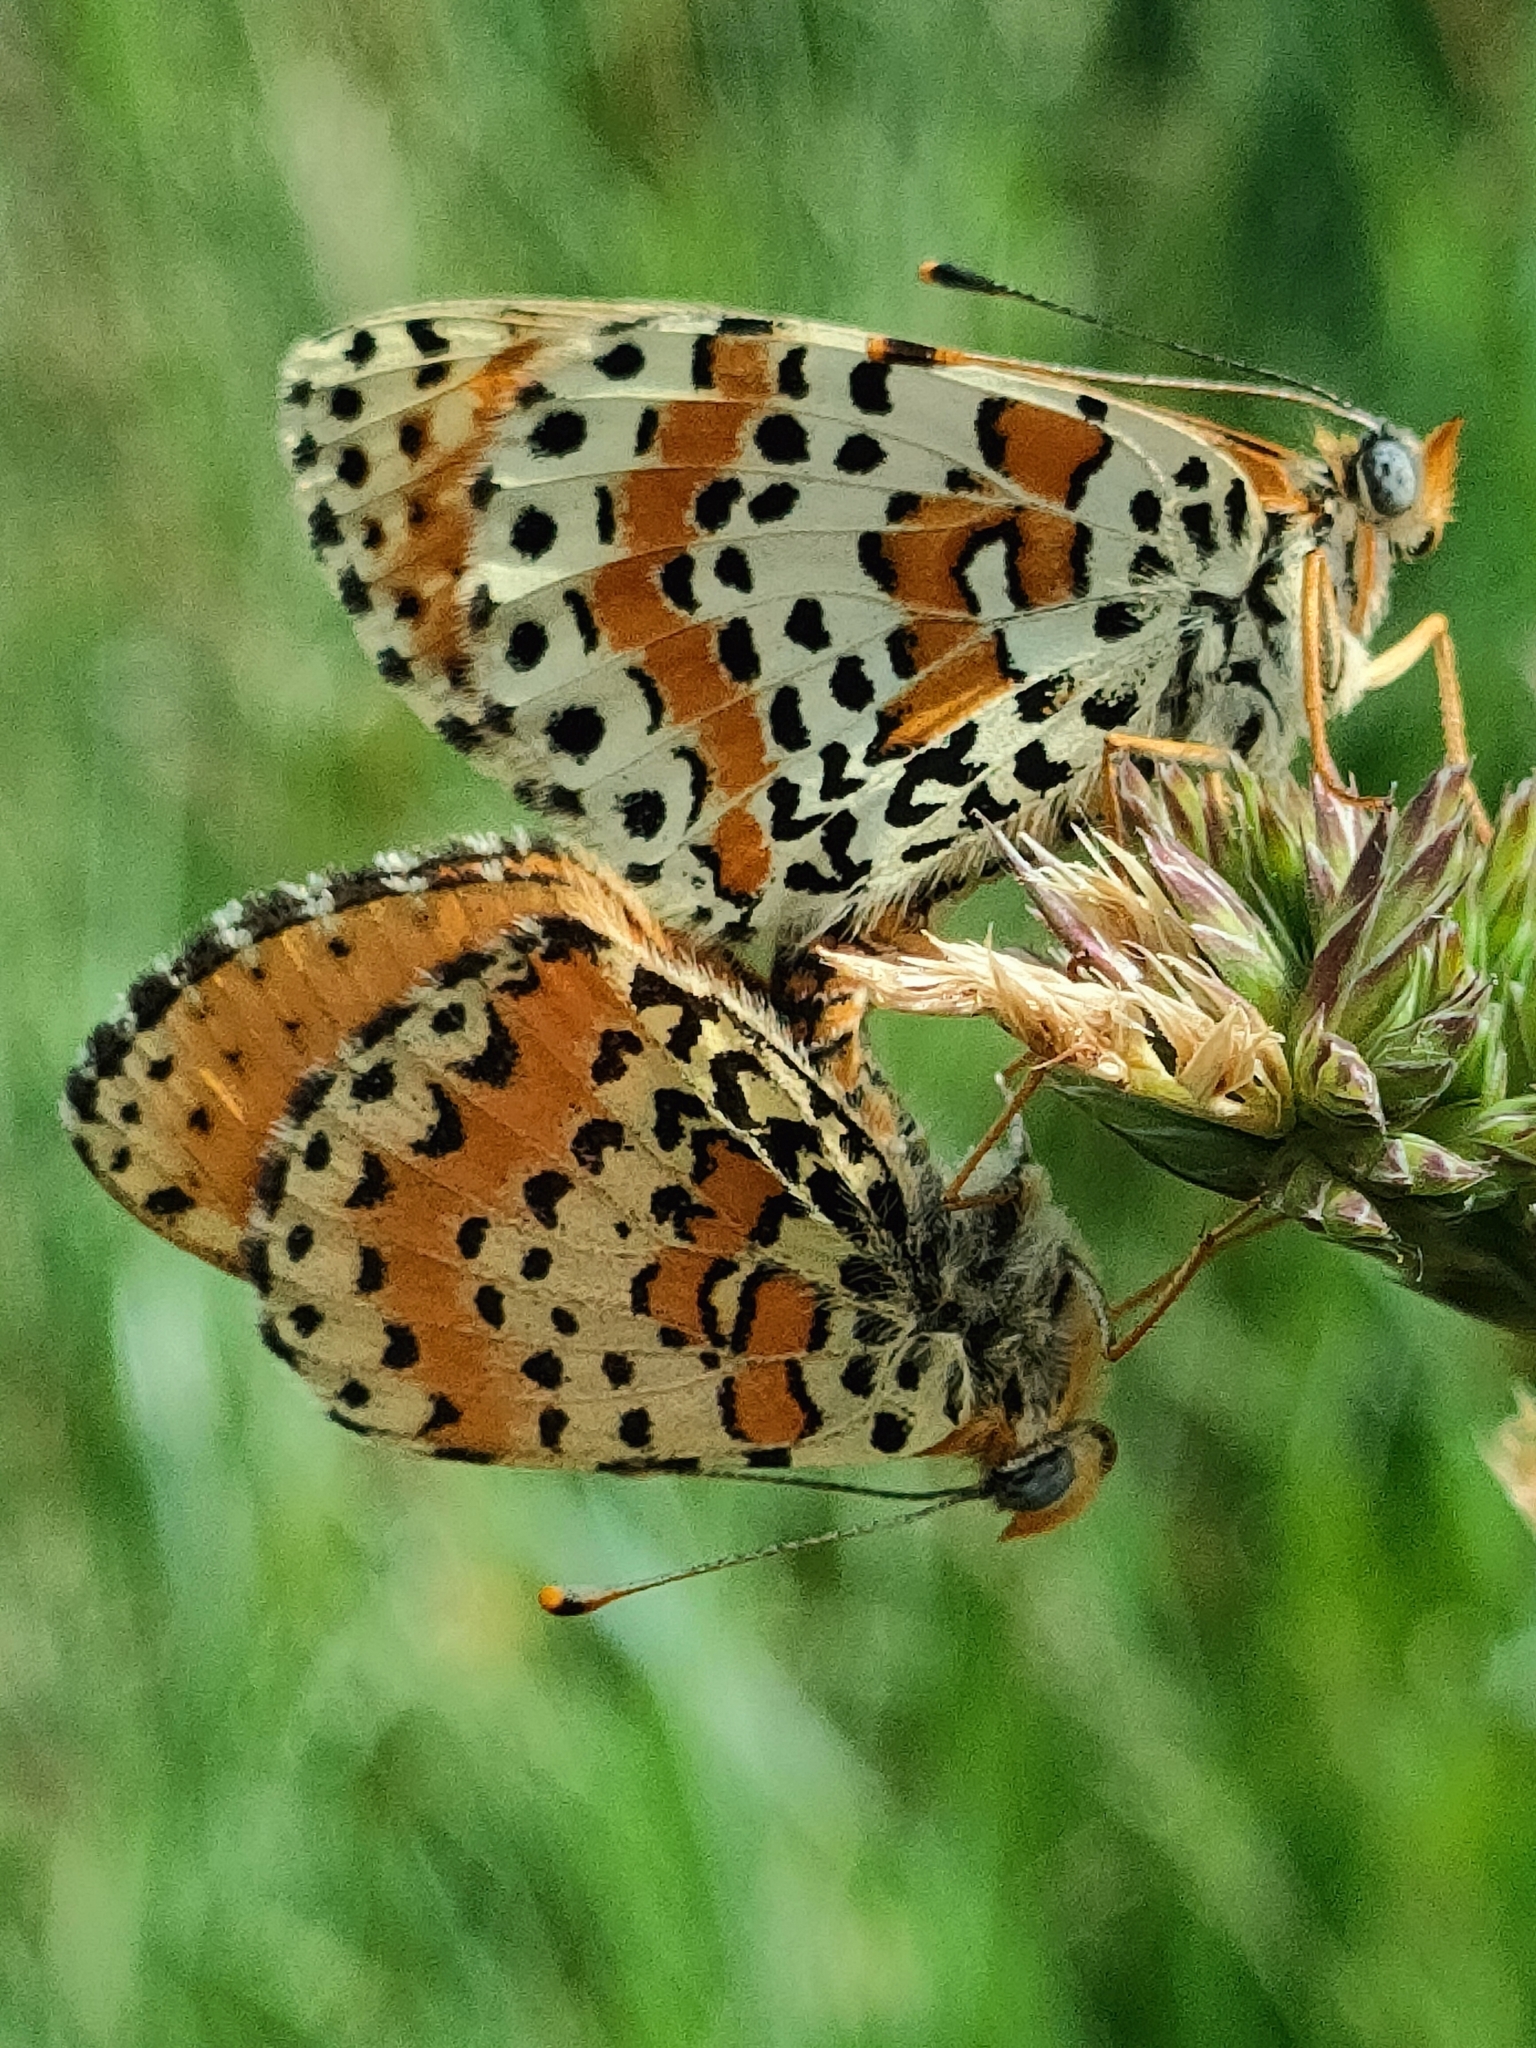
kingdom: Animalia
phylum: Arthropoda
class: Insecta
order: Lepidoptera
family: Nymphalidae
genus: Melitaea
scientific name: Melitaea didyma
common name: Spotted fritillary
